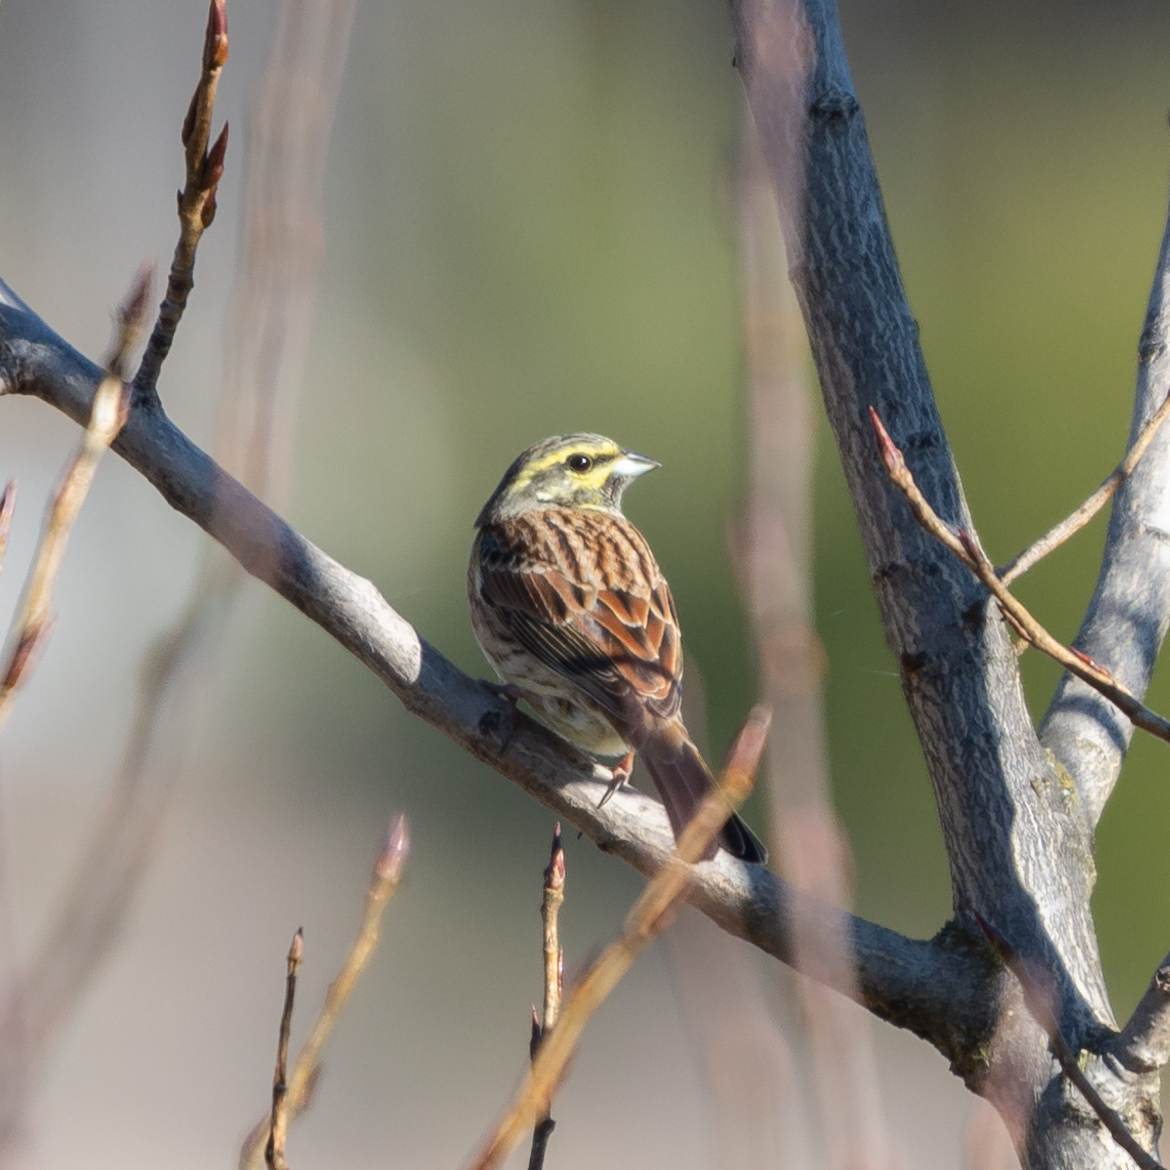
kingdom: Animalia
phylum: Chordata
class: Aves
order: Passeriformes
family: Emberizidae
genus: Emberiza
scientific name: Emberiza cirlus
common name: Cirl bunting
